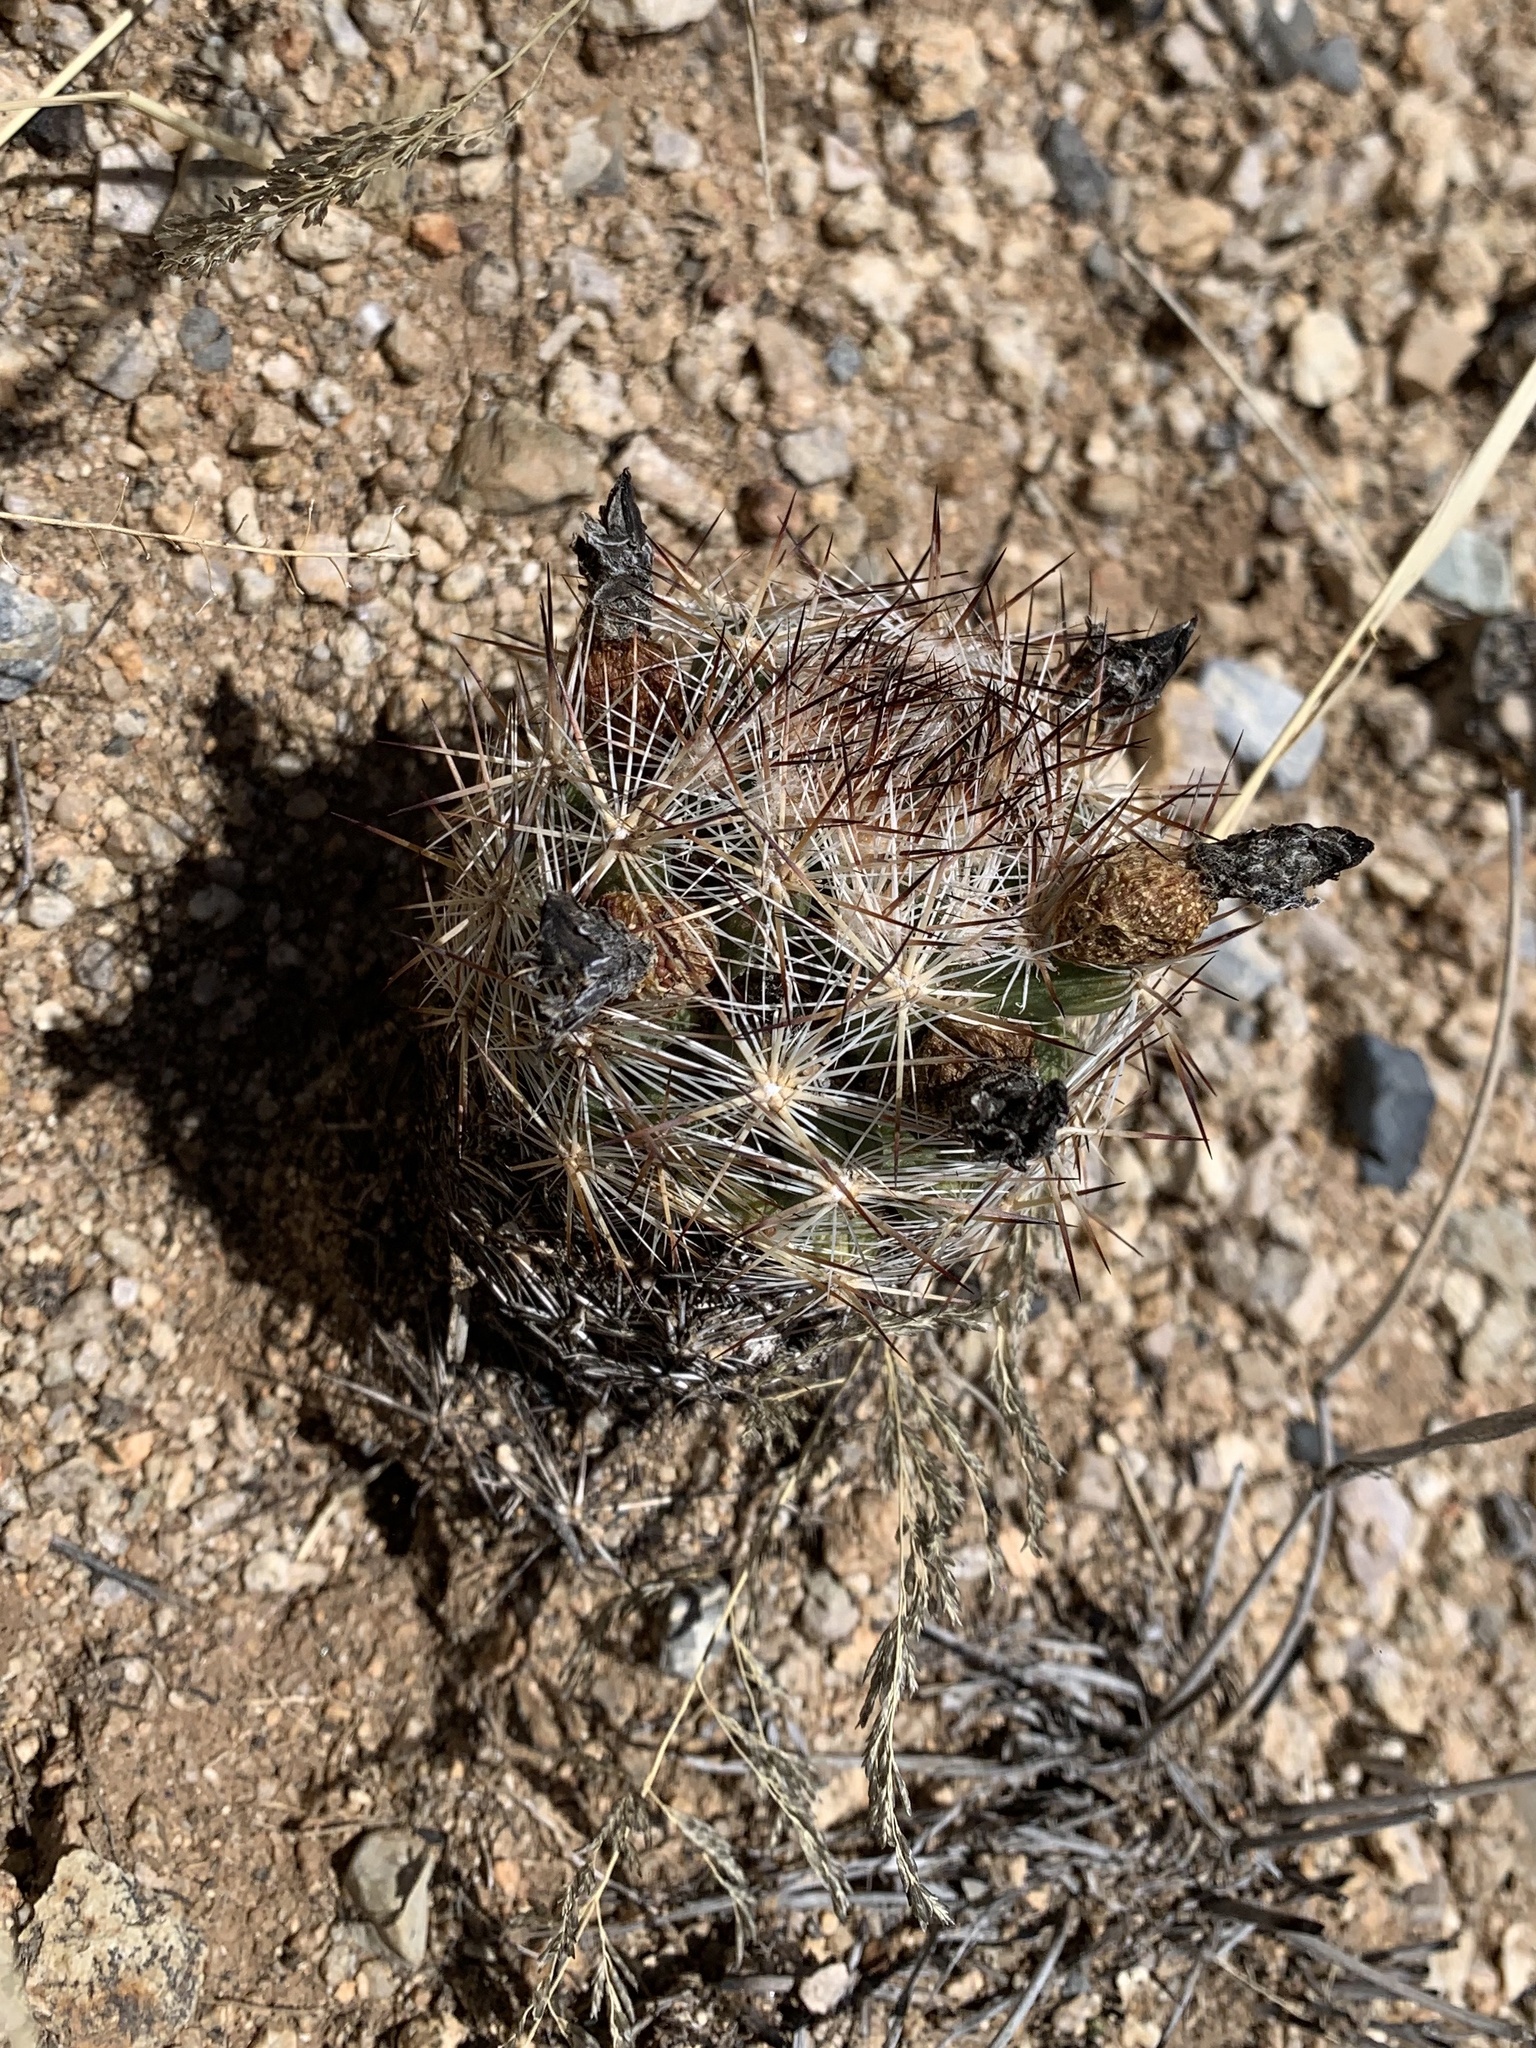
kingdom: Plantae
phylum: Tracheophyta
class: Magnoliopsida
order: Caryophyllales
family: Cactaceae
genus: Pelecyphora
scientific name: Pelecyphora vivipara
